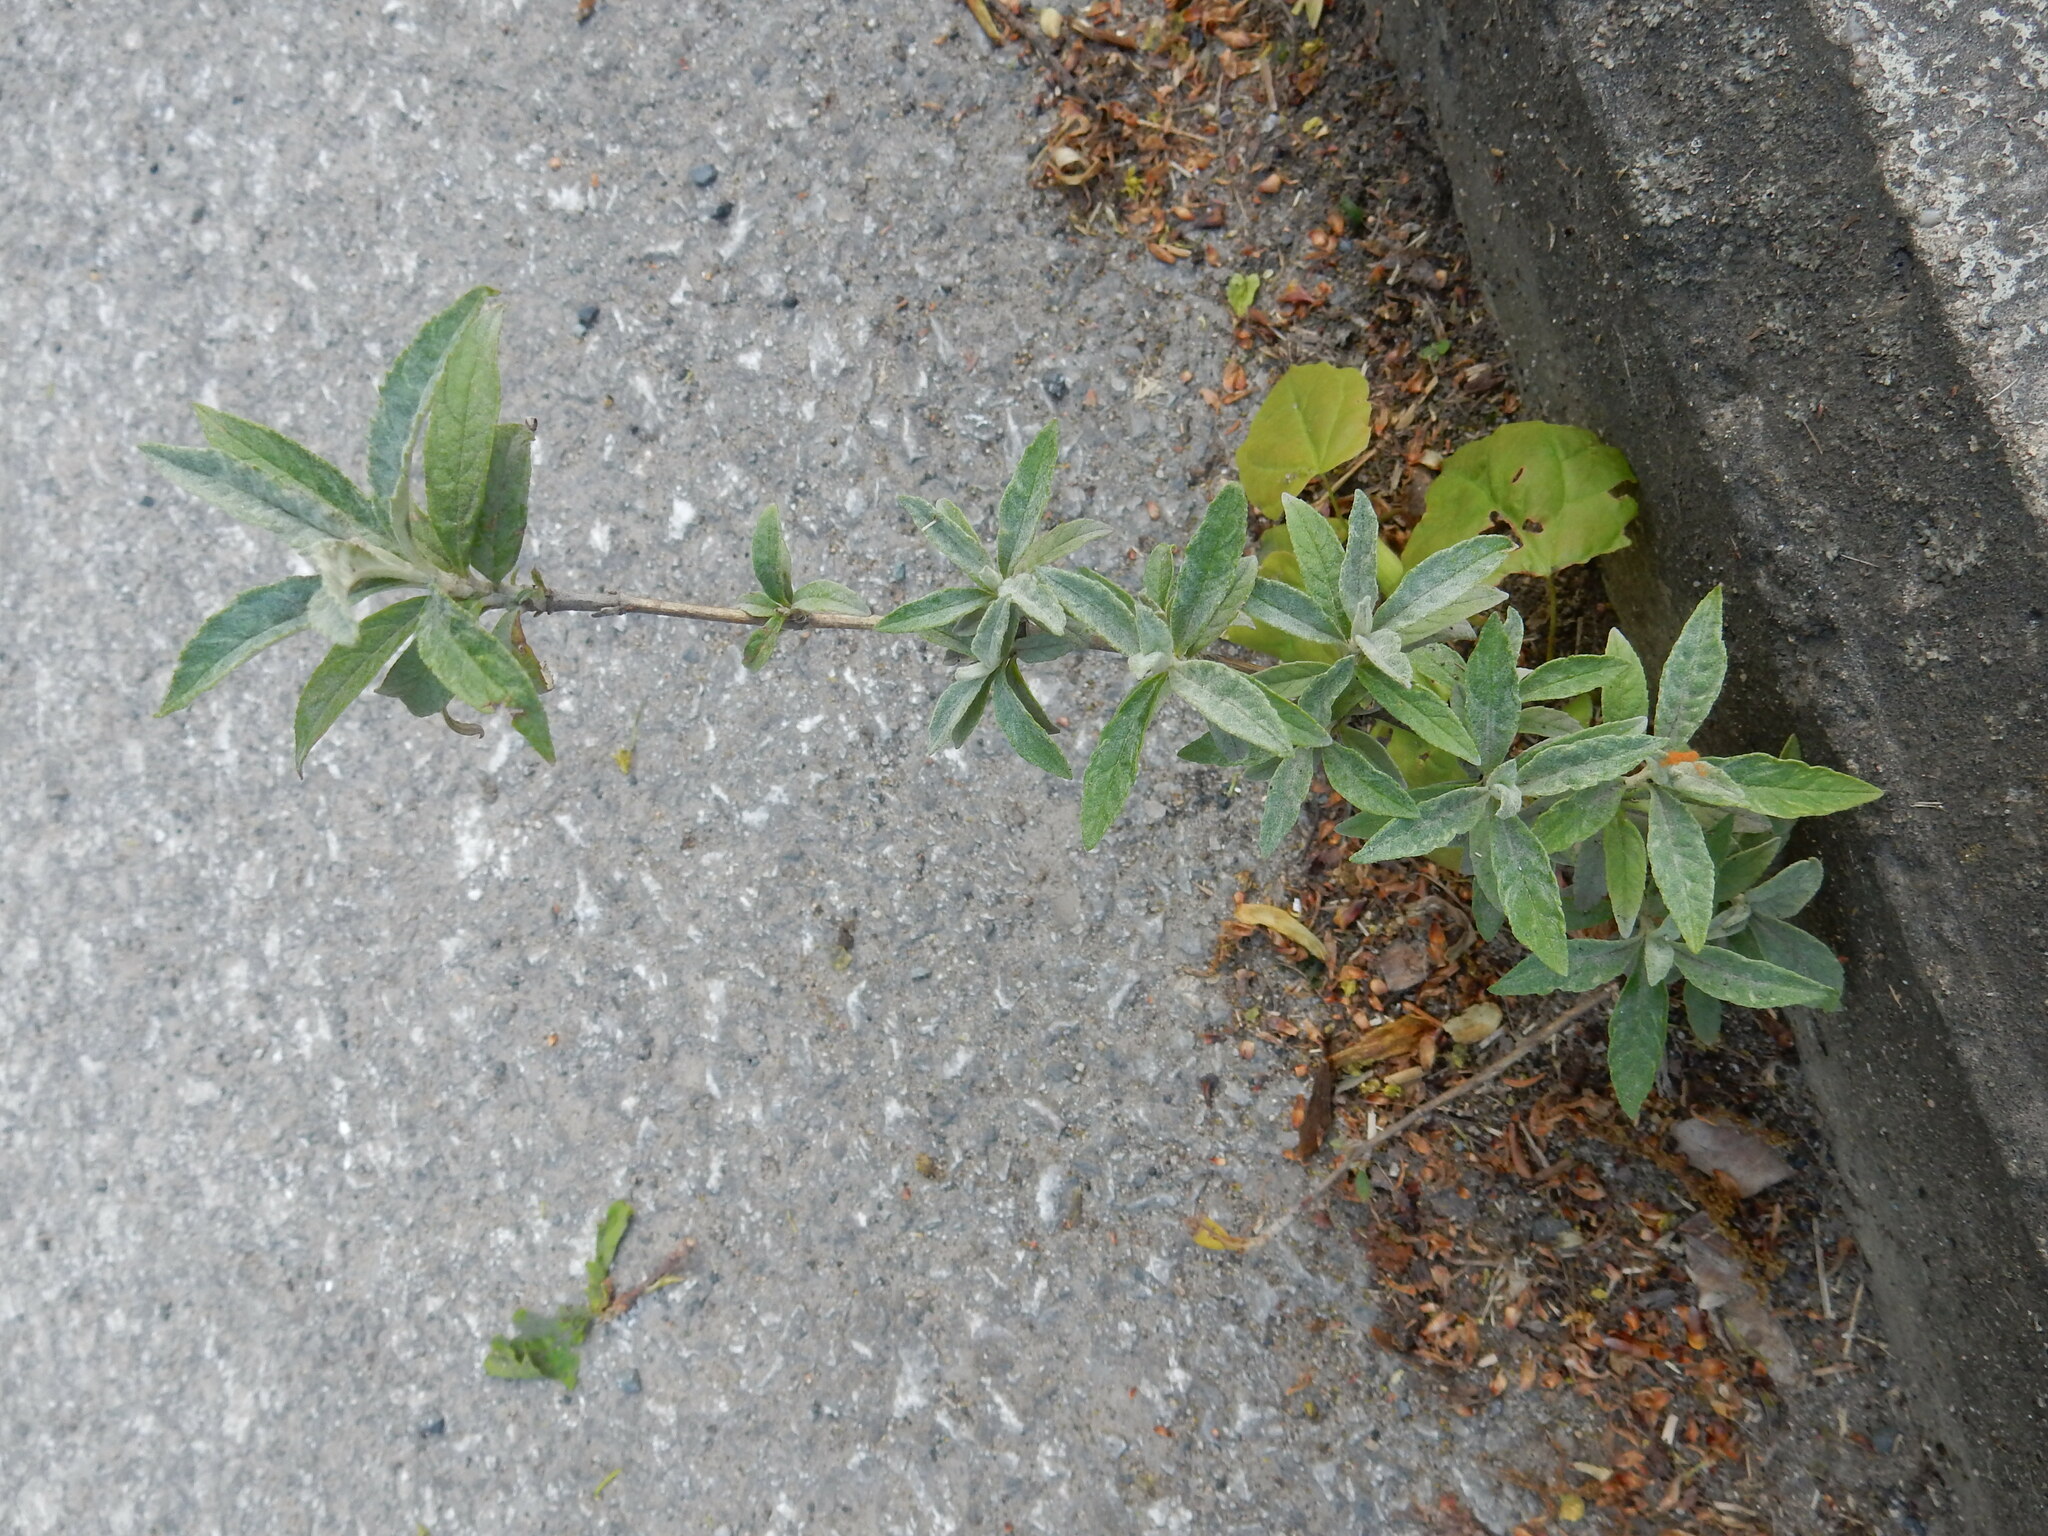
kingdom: Plantae
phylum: Tracheophyta
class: Magnoliopsida
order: Lamiales
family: Scrophulariaceae
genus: Buddleja
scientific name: Buddleja davidii
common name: Butterfly-bush
